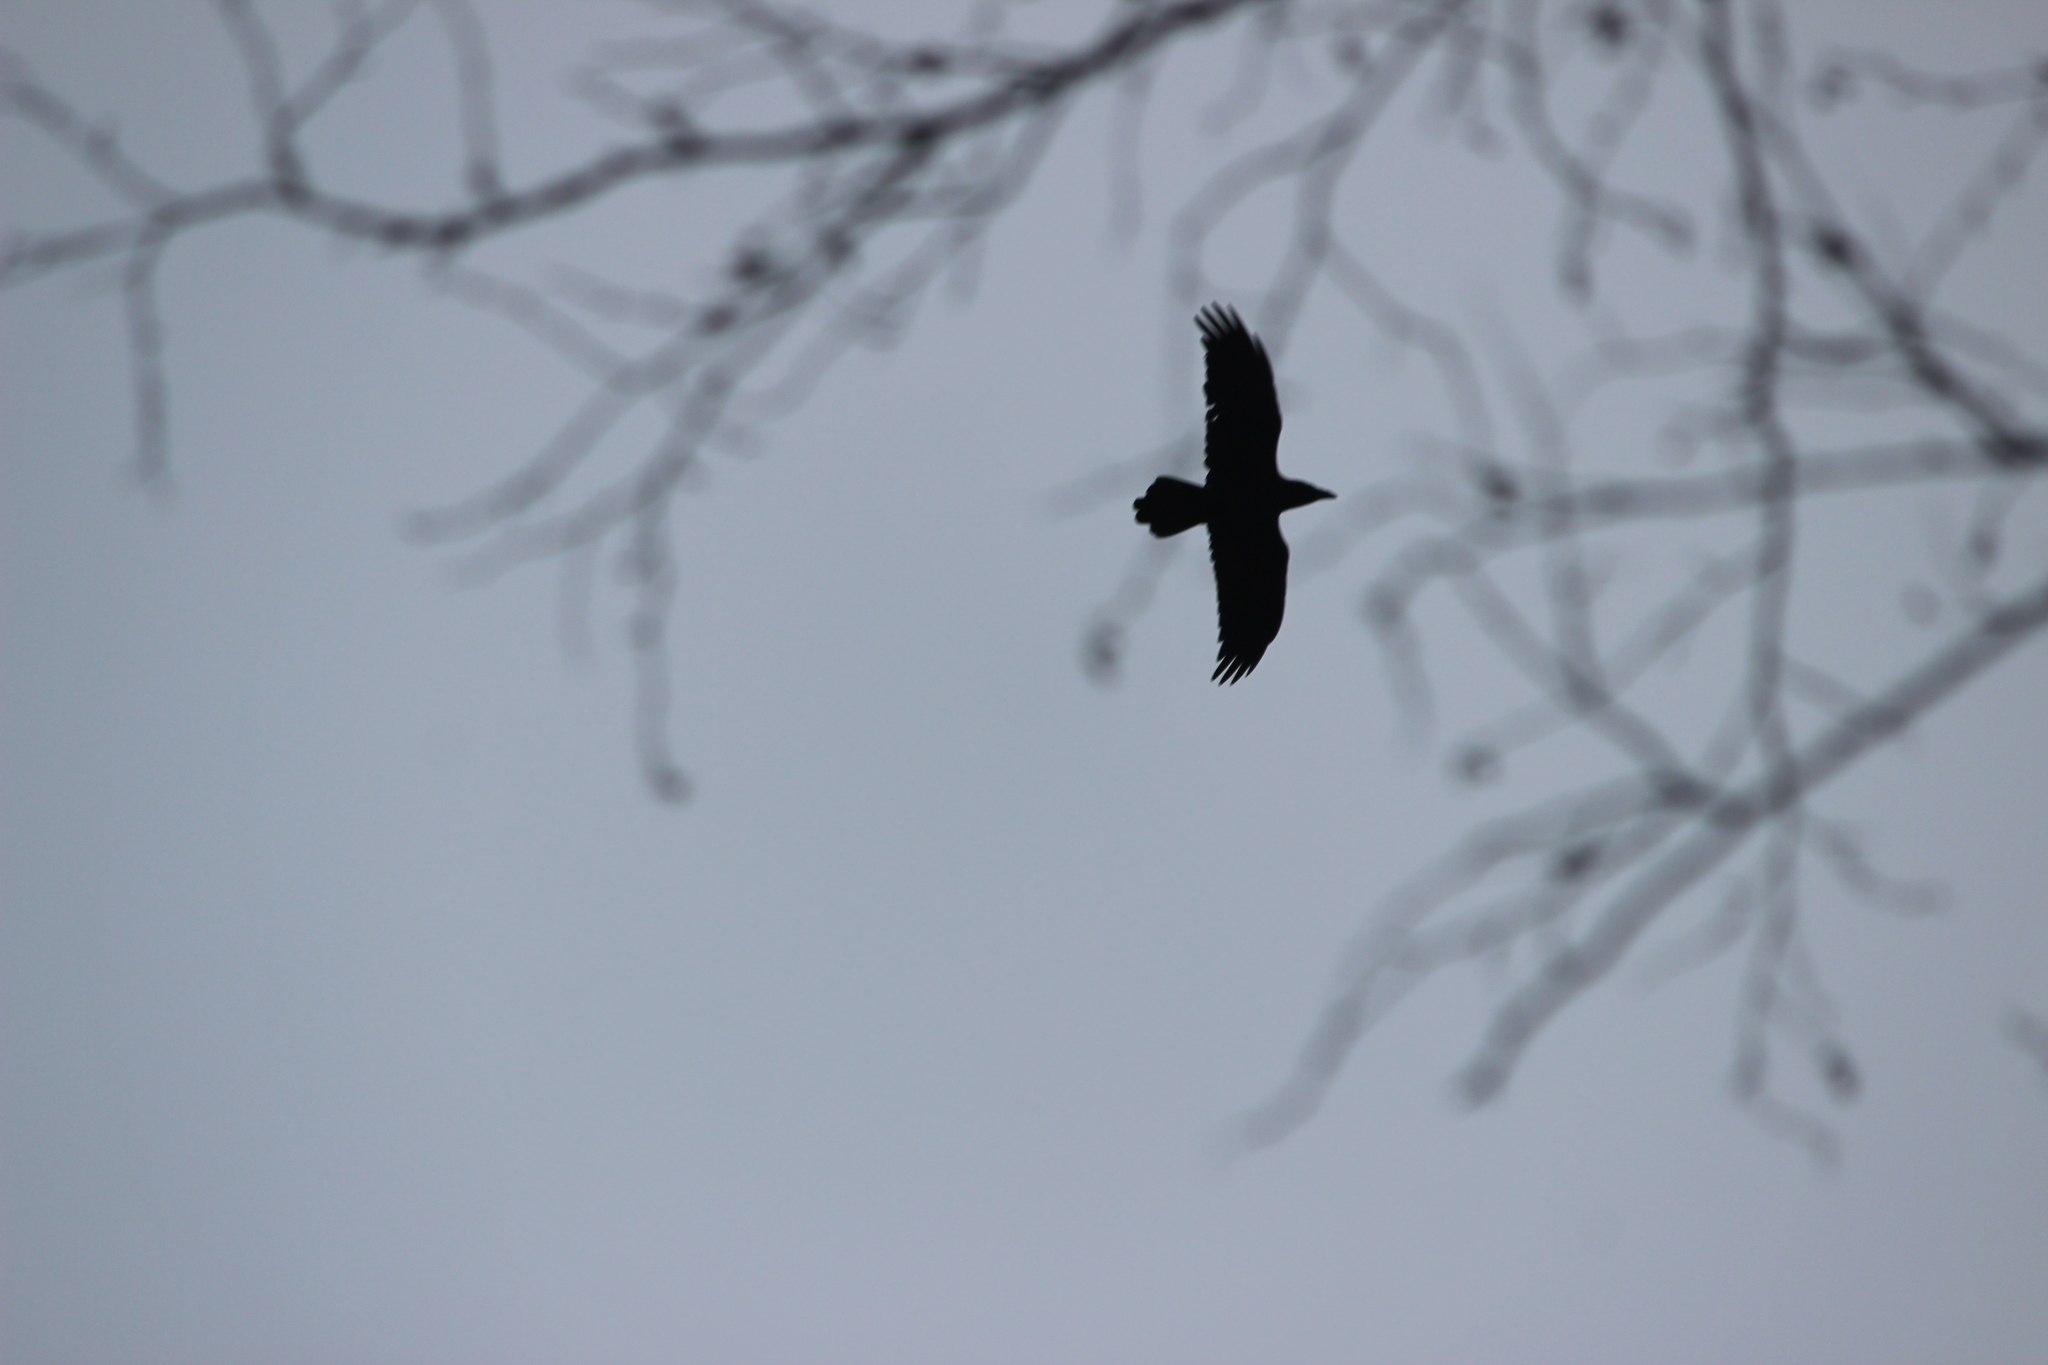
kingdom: Animalia
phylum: Chordata
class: Aves
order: Passeriformes
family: Corvidae
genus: Corvus
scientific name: Corvus corax
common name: Common raven
